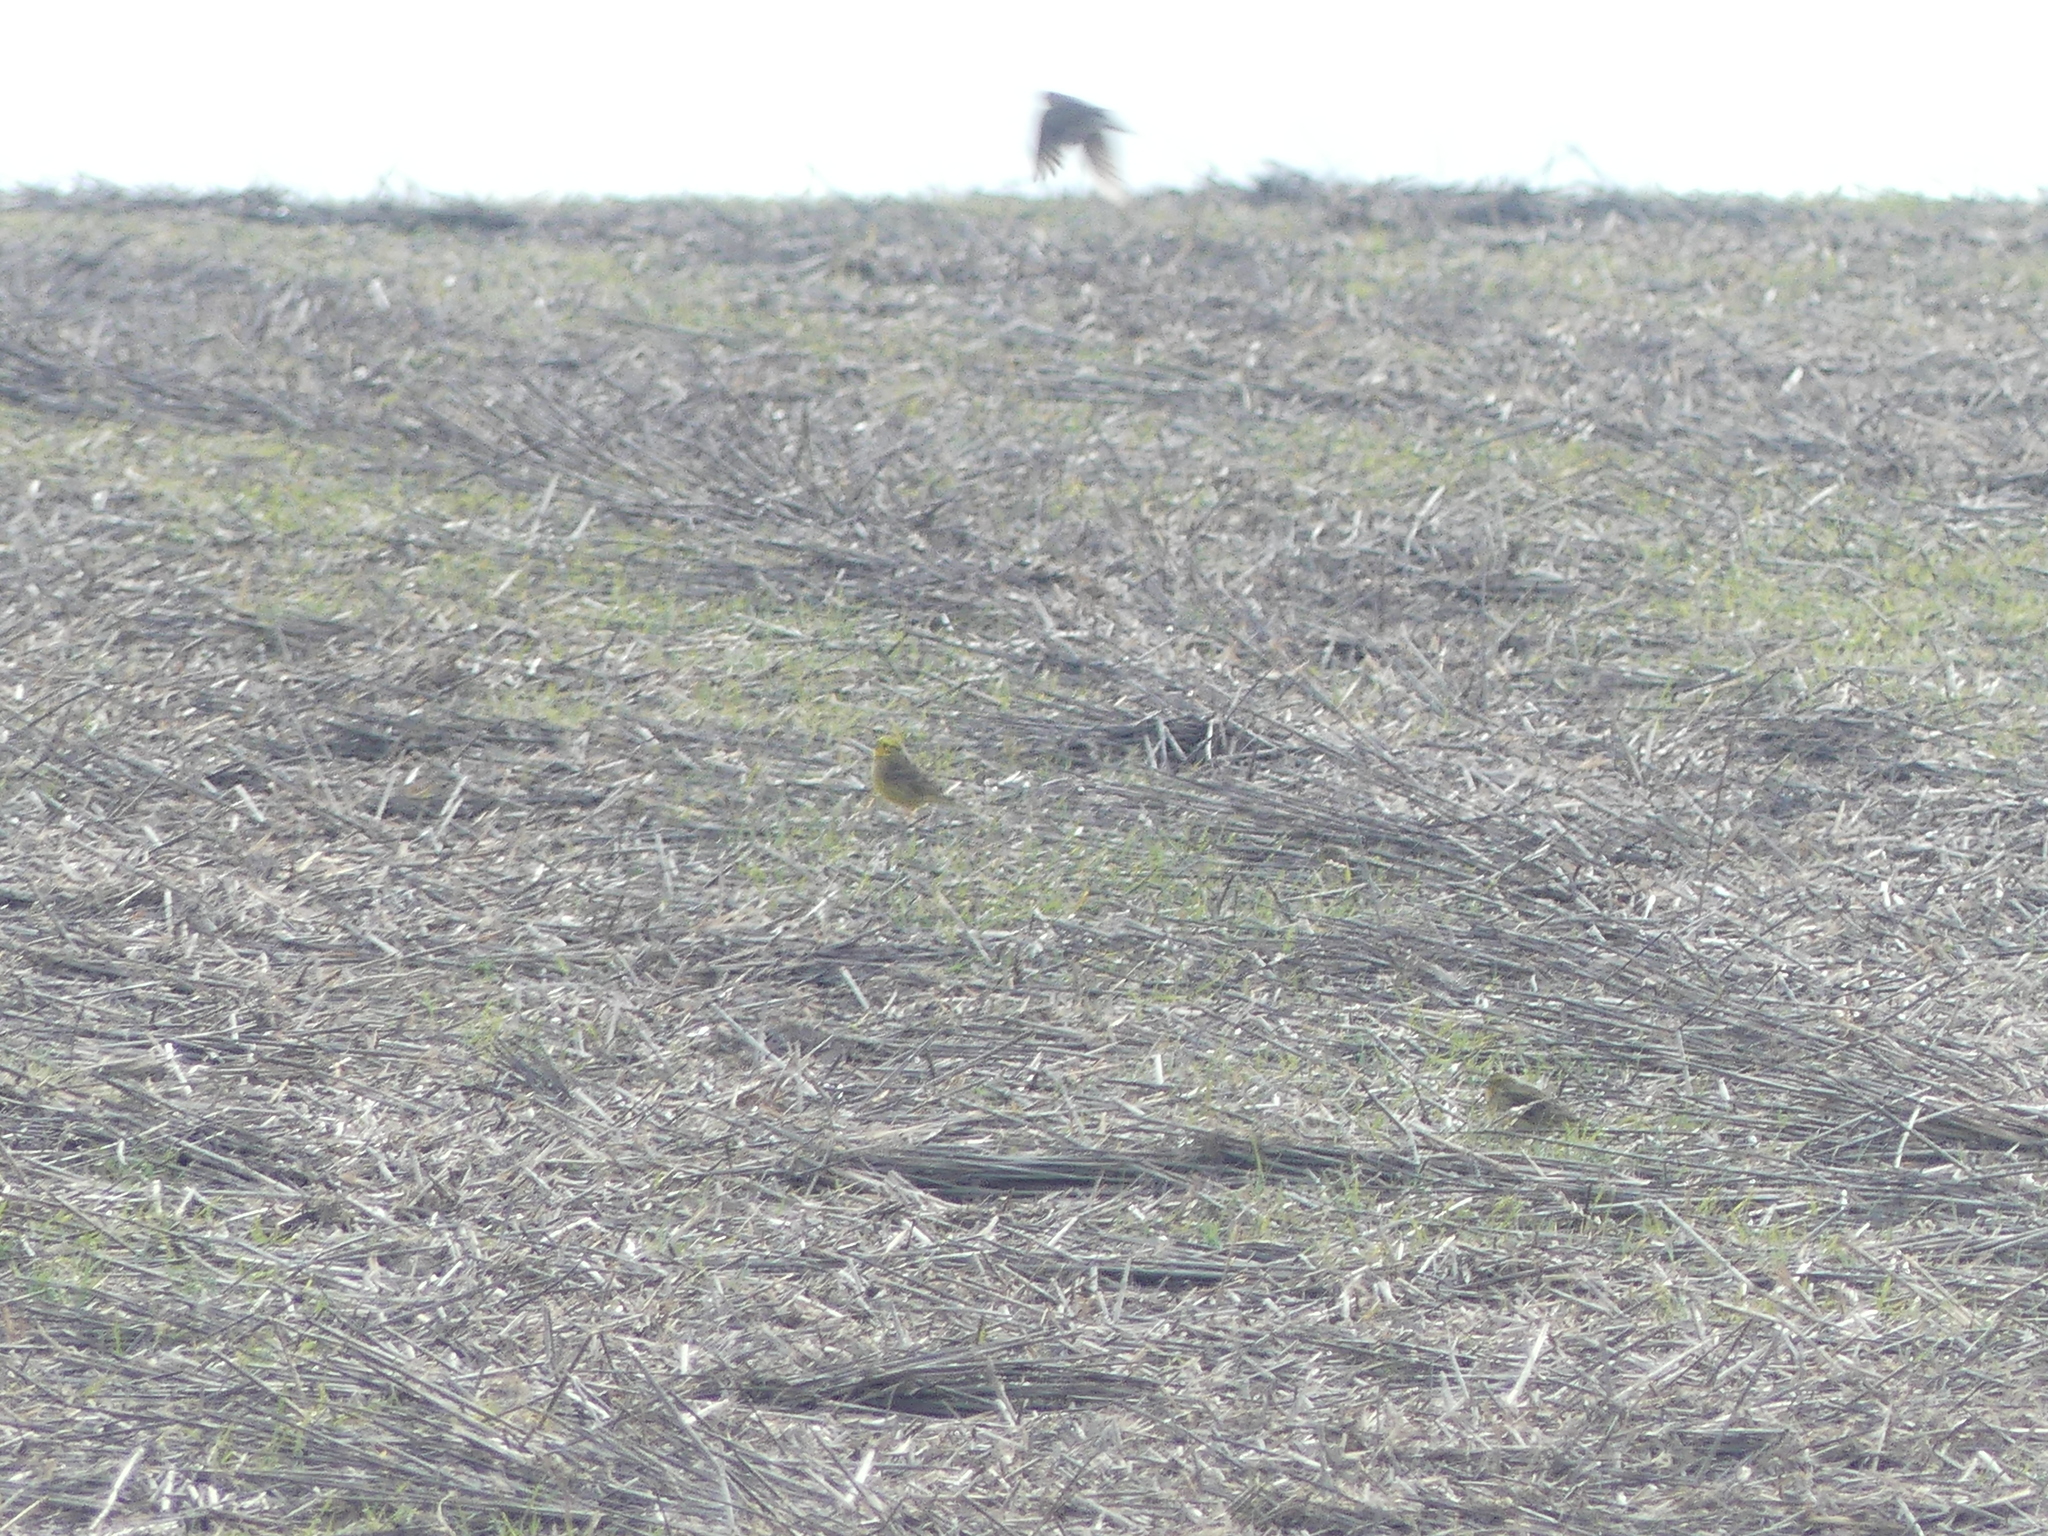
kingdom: Animalia
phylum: Chordata
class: Aves
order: Passeriformes
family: Emberizidae
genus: Emberiza
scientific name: Emberiza citrinella
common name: Yellowhammer
